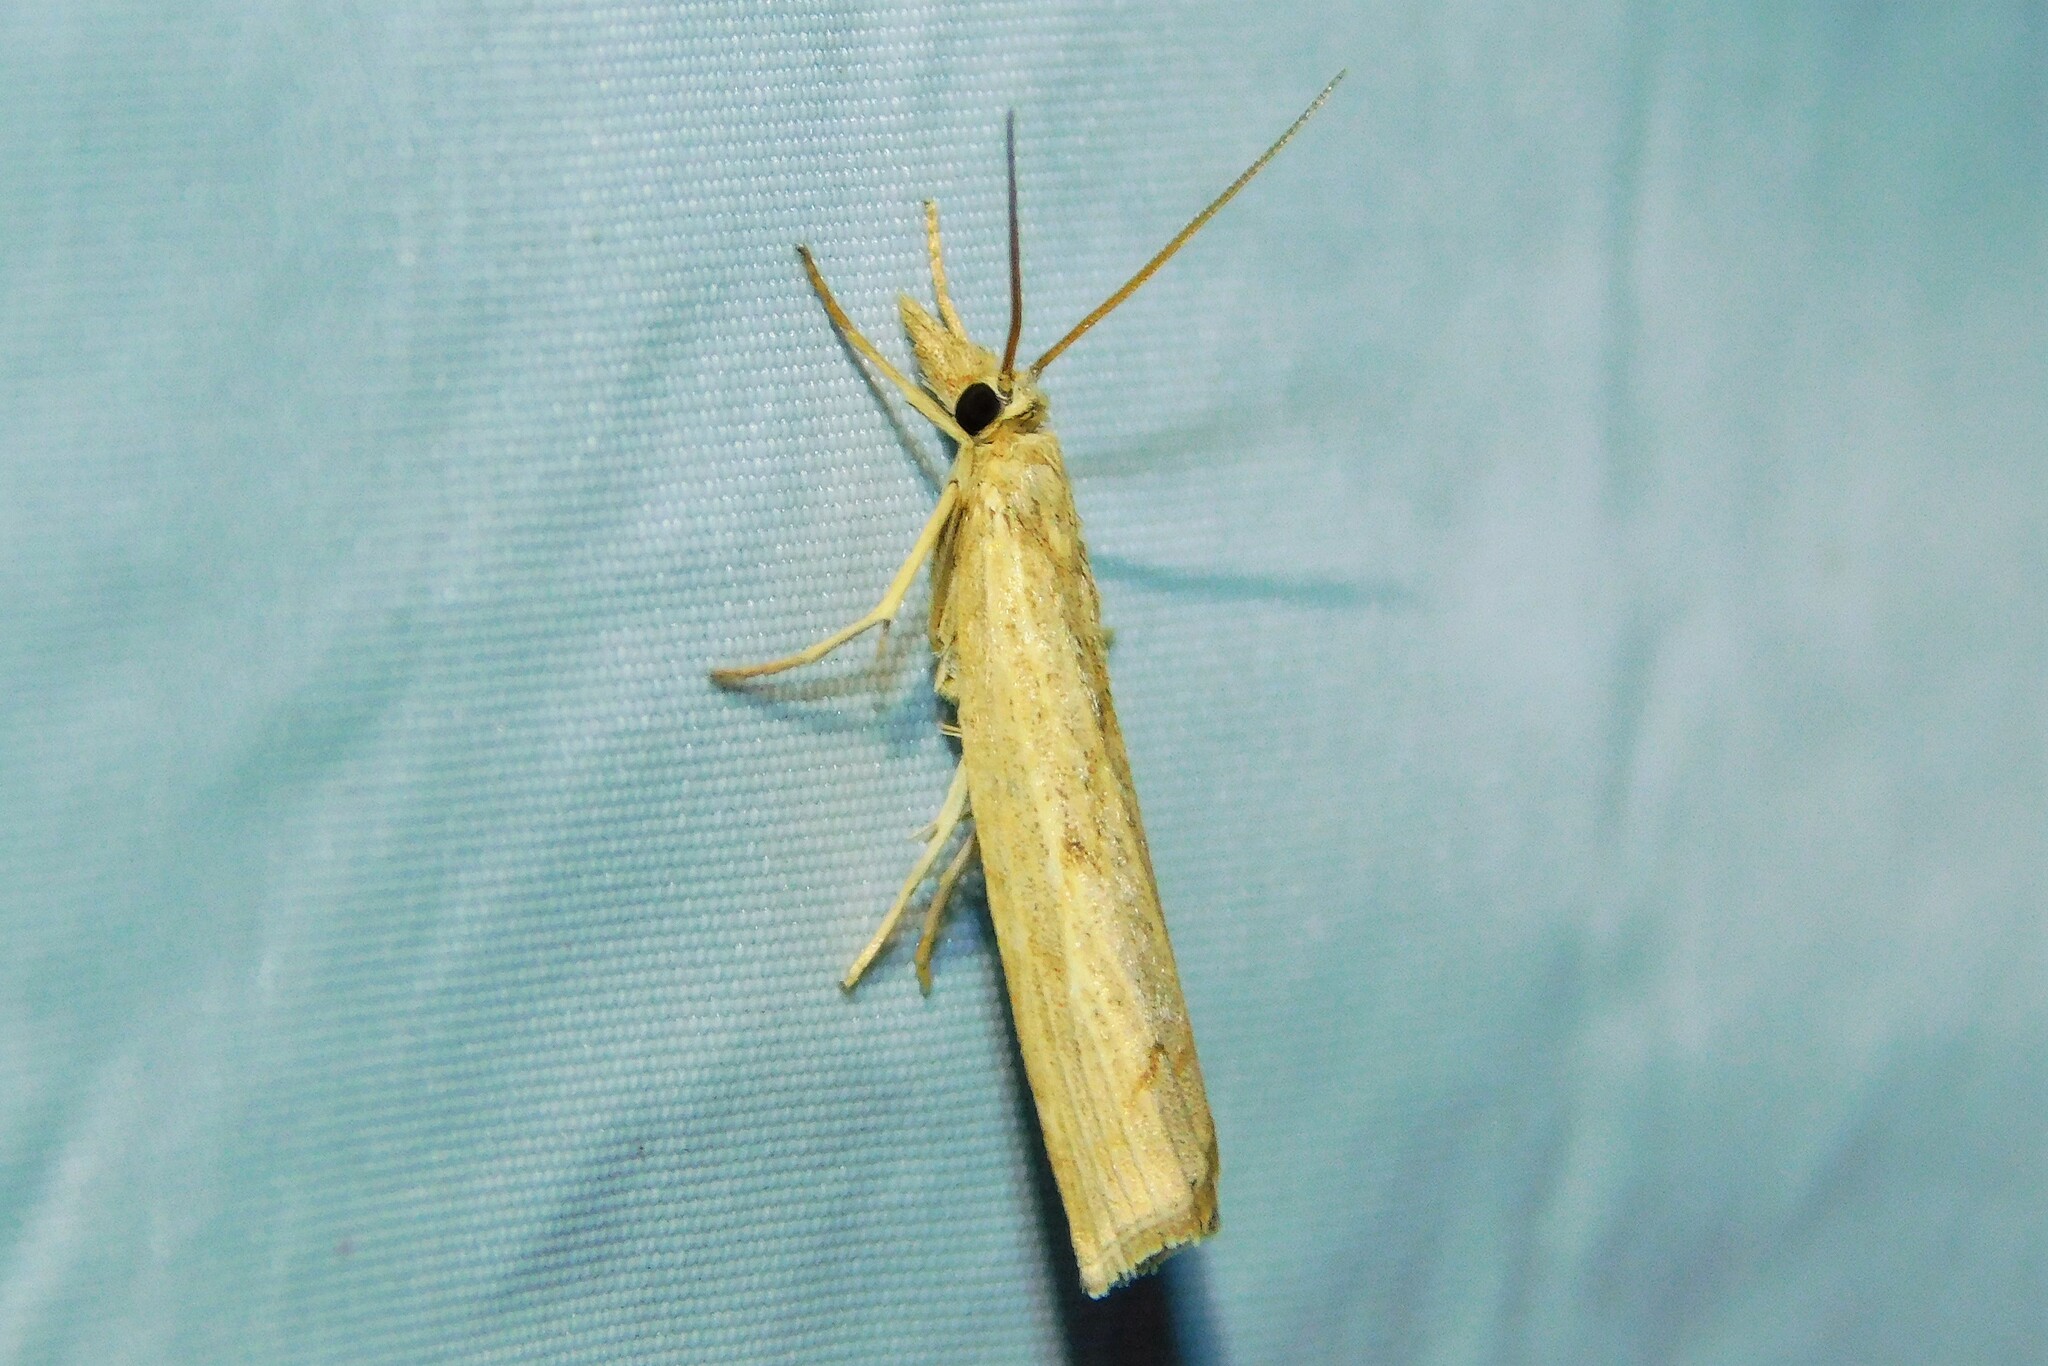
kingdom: Animalia
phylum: Arthropoda
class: Insecta
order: Lepidoptera
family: Crambidae
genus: Pediasia
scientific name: Pediasia contaminella
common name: Waste grass-veneer
